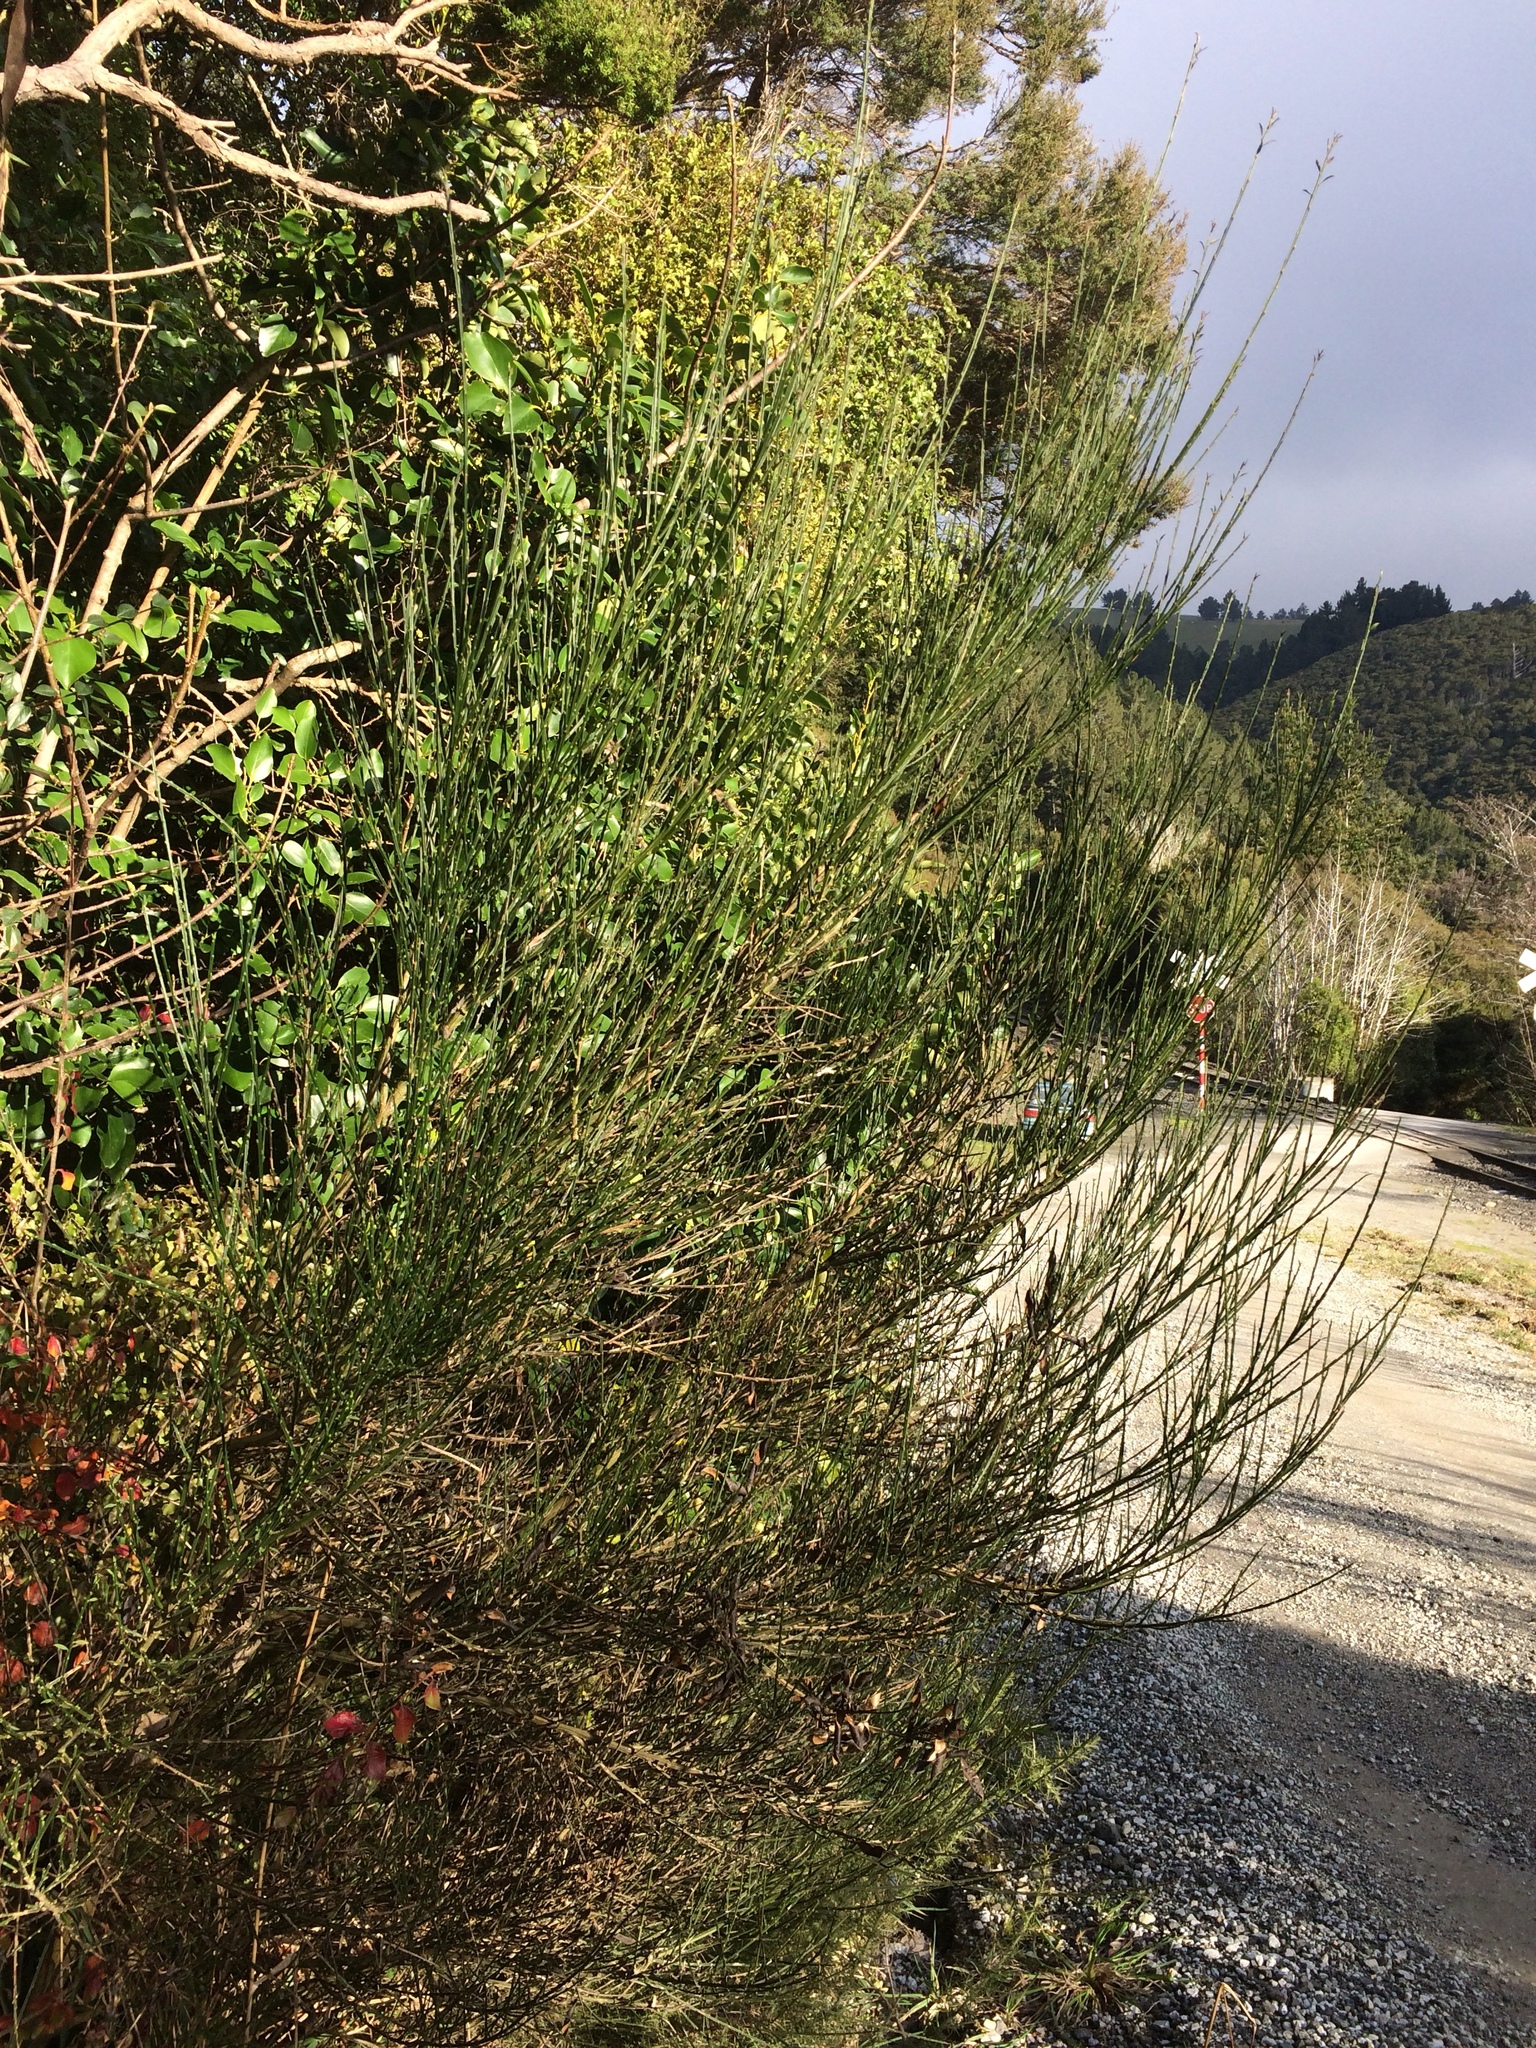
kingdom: Plantae
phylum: Tracheophyta
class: Magnoliopsida
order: Fabales
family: Fabaceae
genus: Cytisus
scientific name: Cytisus scoparius
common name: Scotch broom
